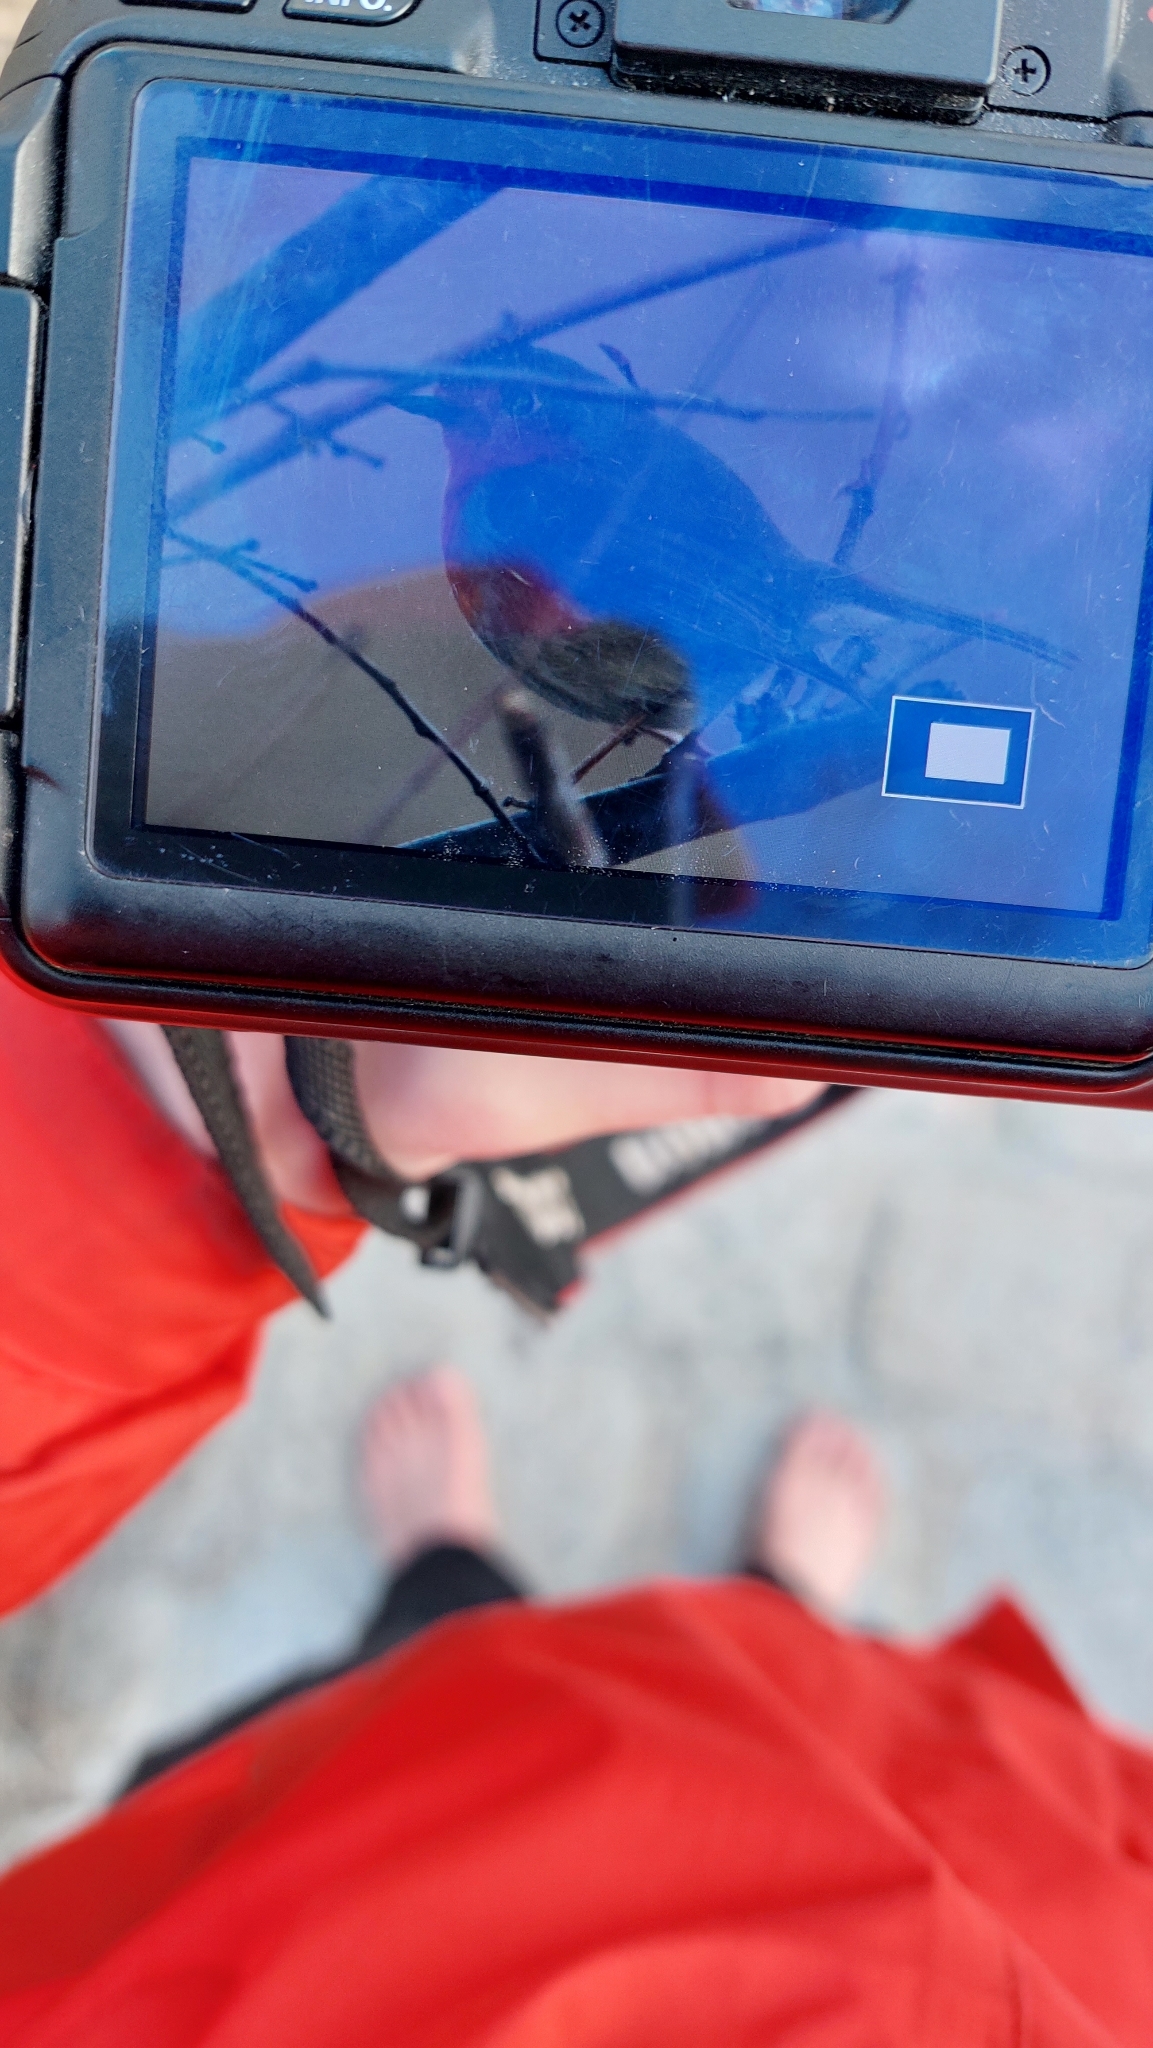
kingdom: Animalia
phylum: Chordata
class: Aves
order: Passeriformes
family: Muscicapidae
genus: Erithacus
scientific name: Erithacus rubecula
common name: European robin
